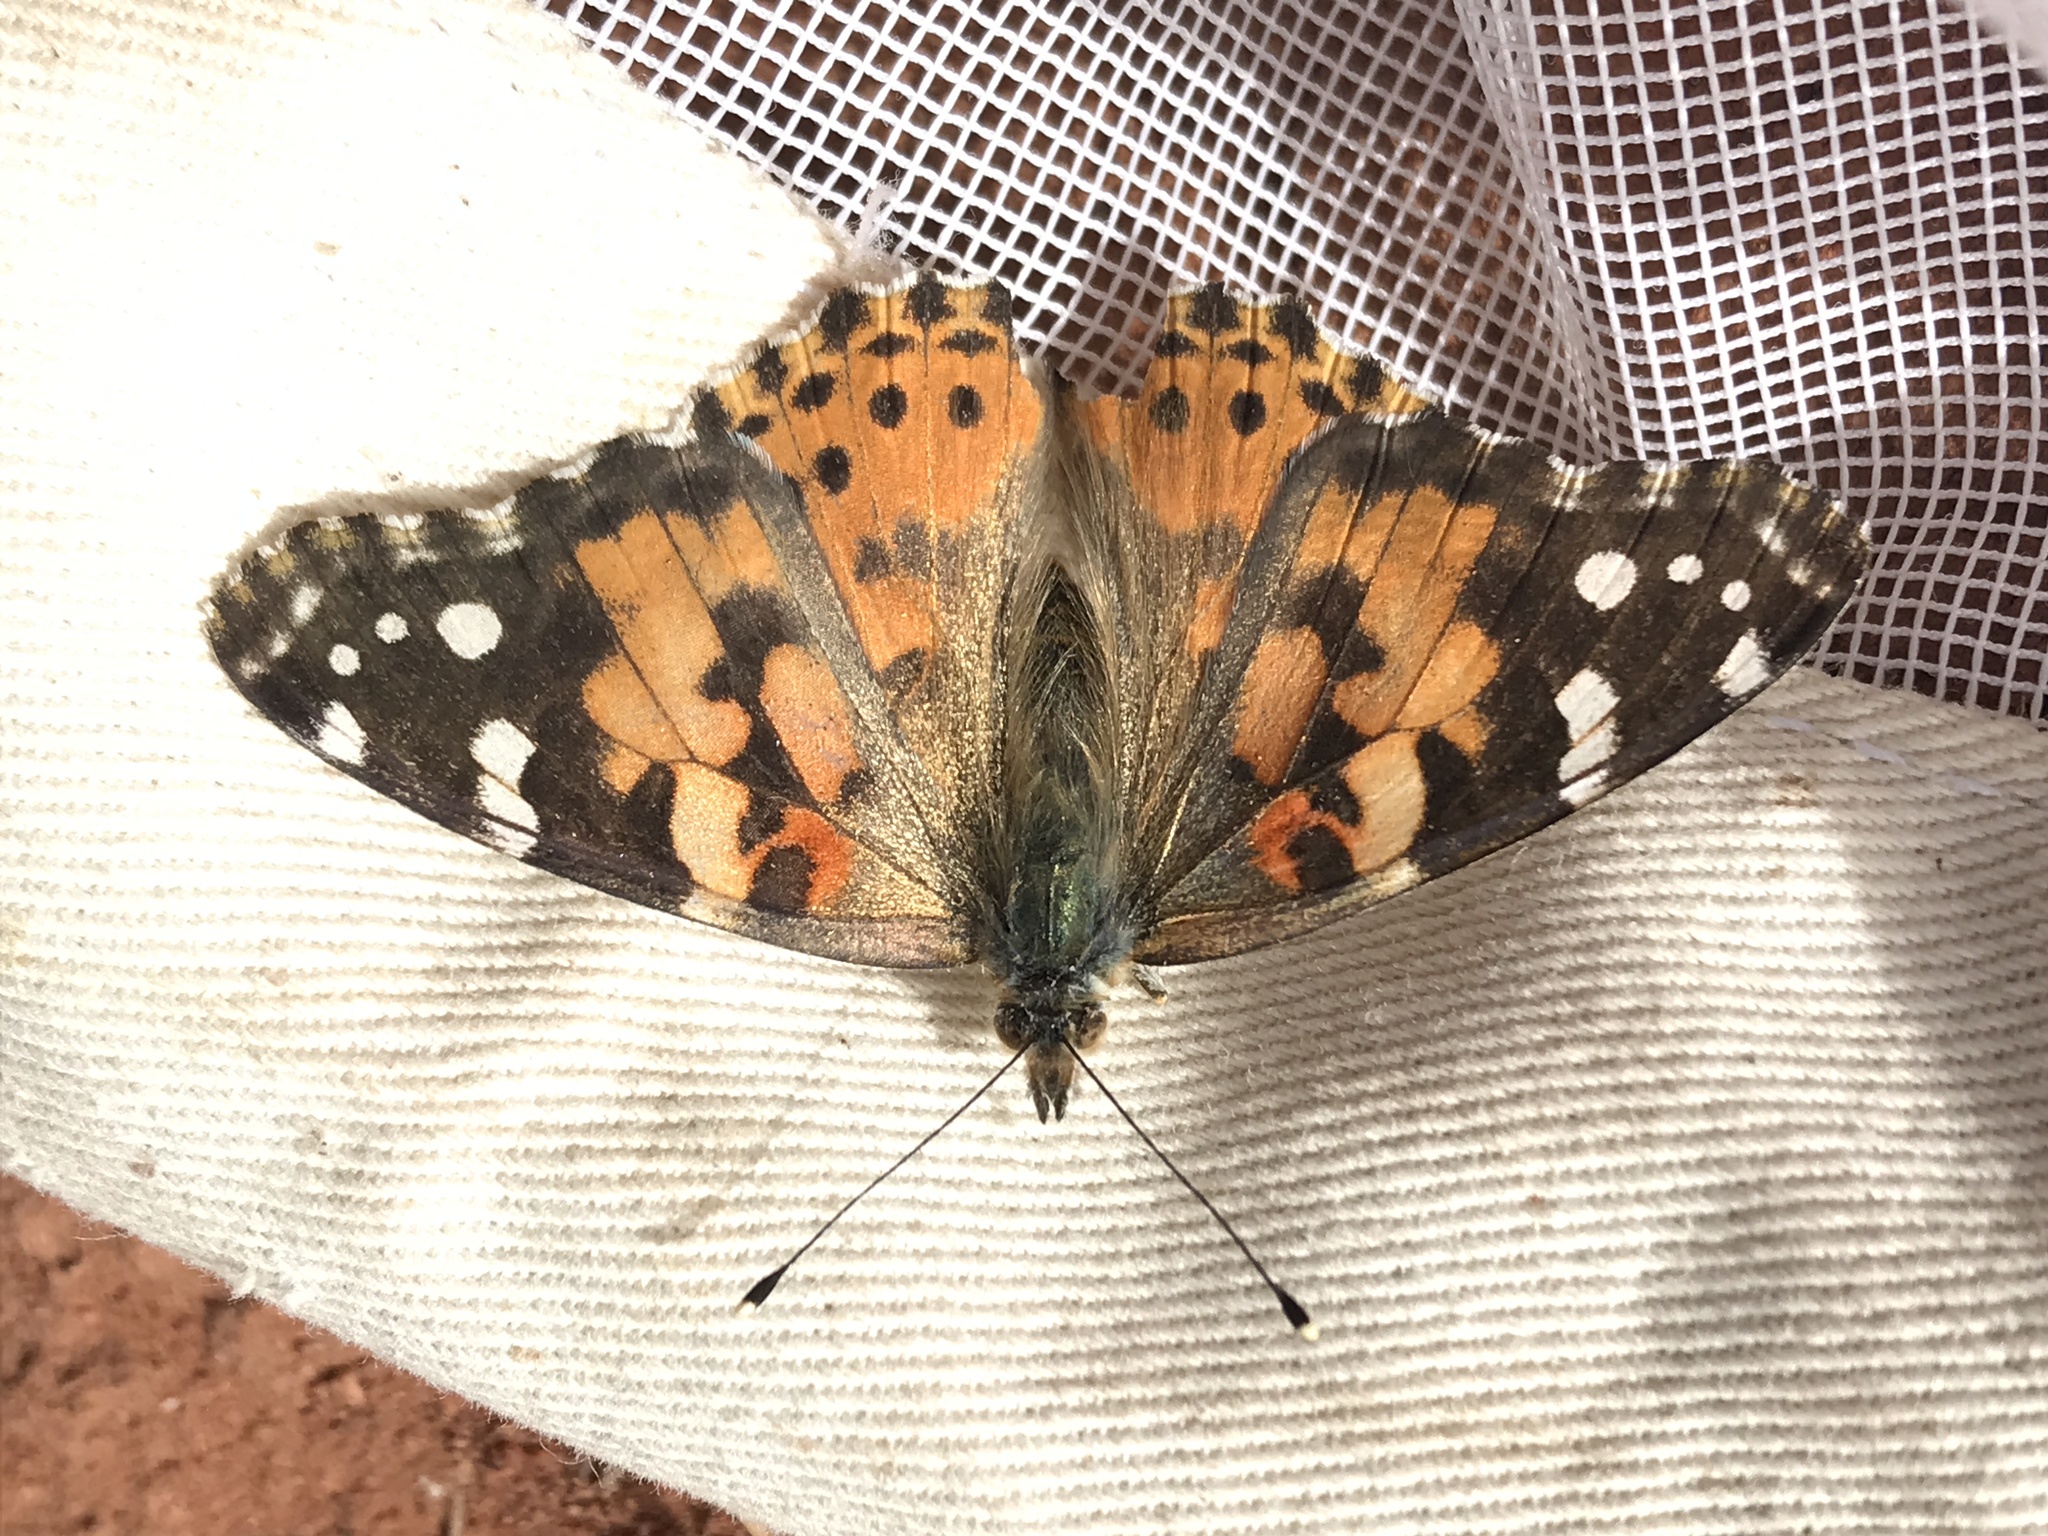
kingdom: Animalia
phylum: Arthropoda
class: Insecta
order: Lepidoptera
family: Nymphalidae
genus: Vanessa
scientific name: Vanessa cardui
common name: Painted lady
